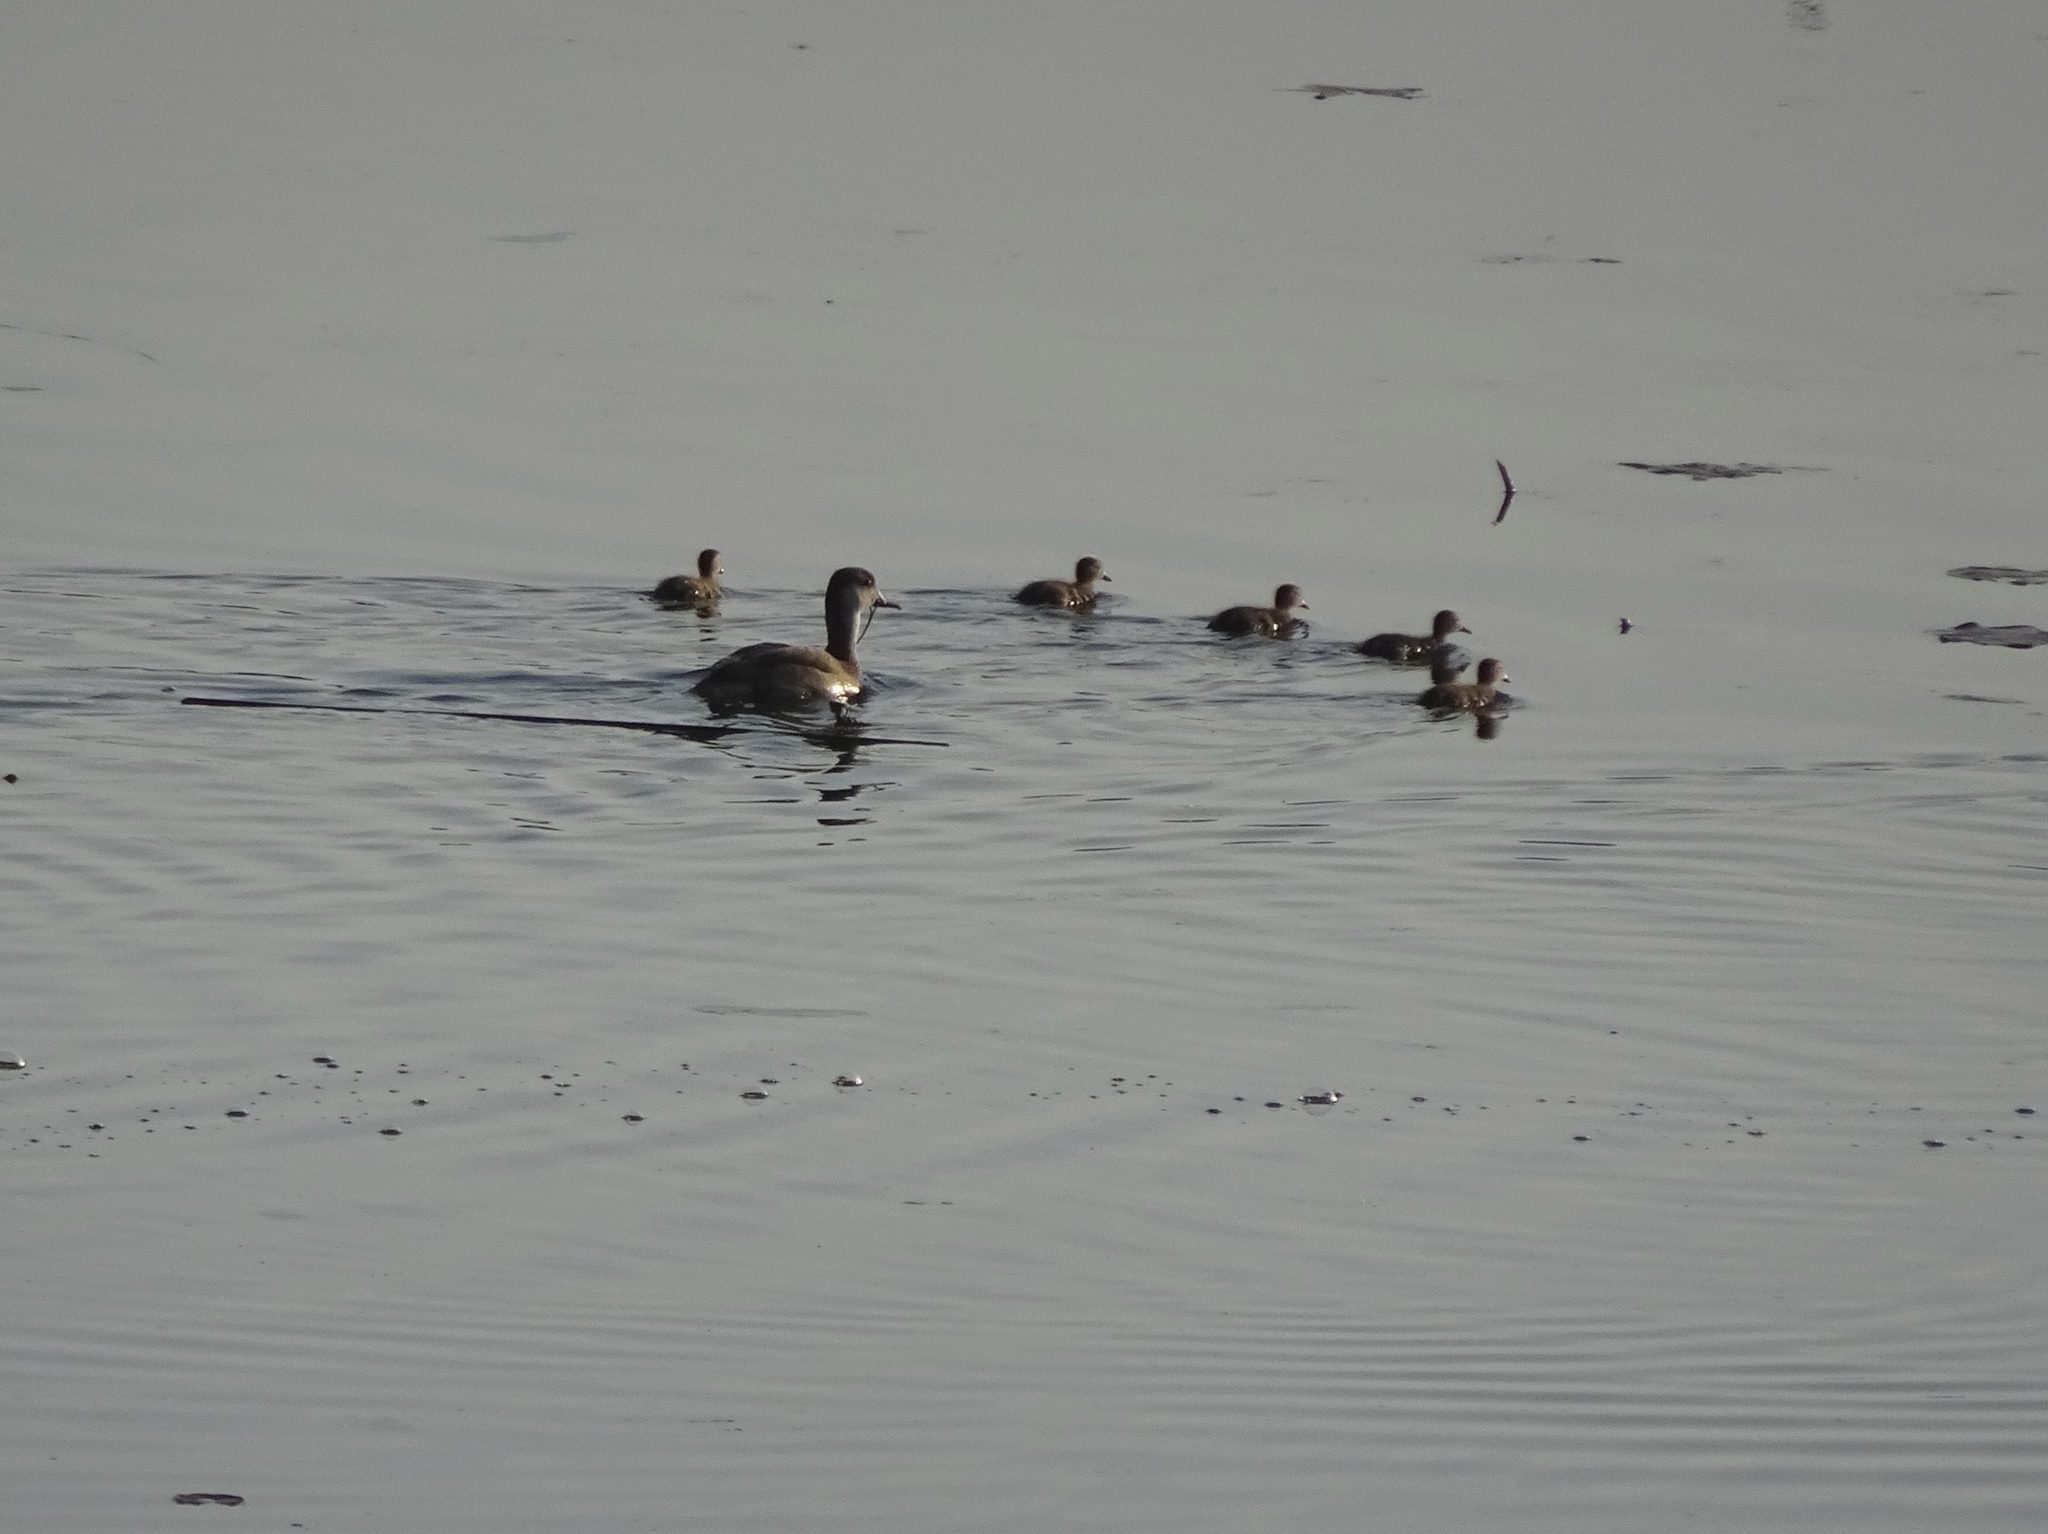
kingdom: Animalia
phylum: Chordata
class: Aves
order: Anseriformes
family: Anatidae
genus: Netta
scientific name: Netta rufina
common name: Red-crested pochard
